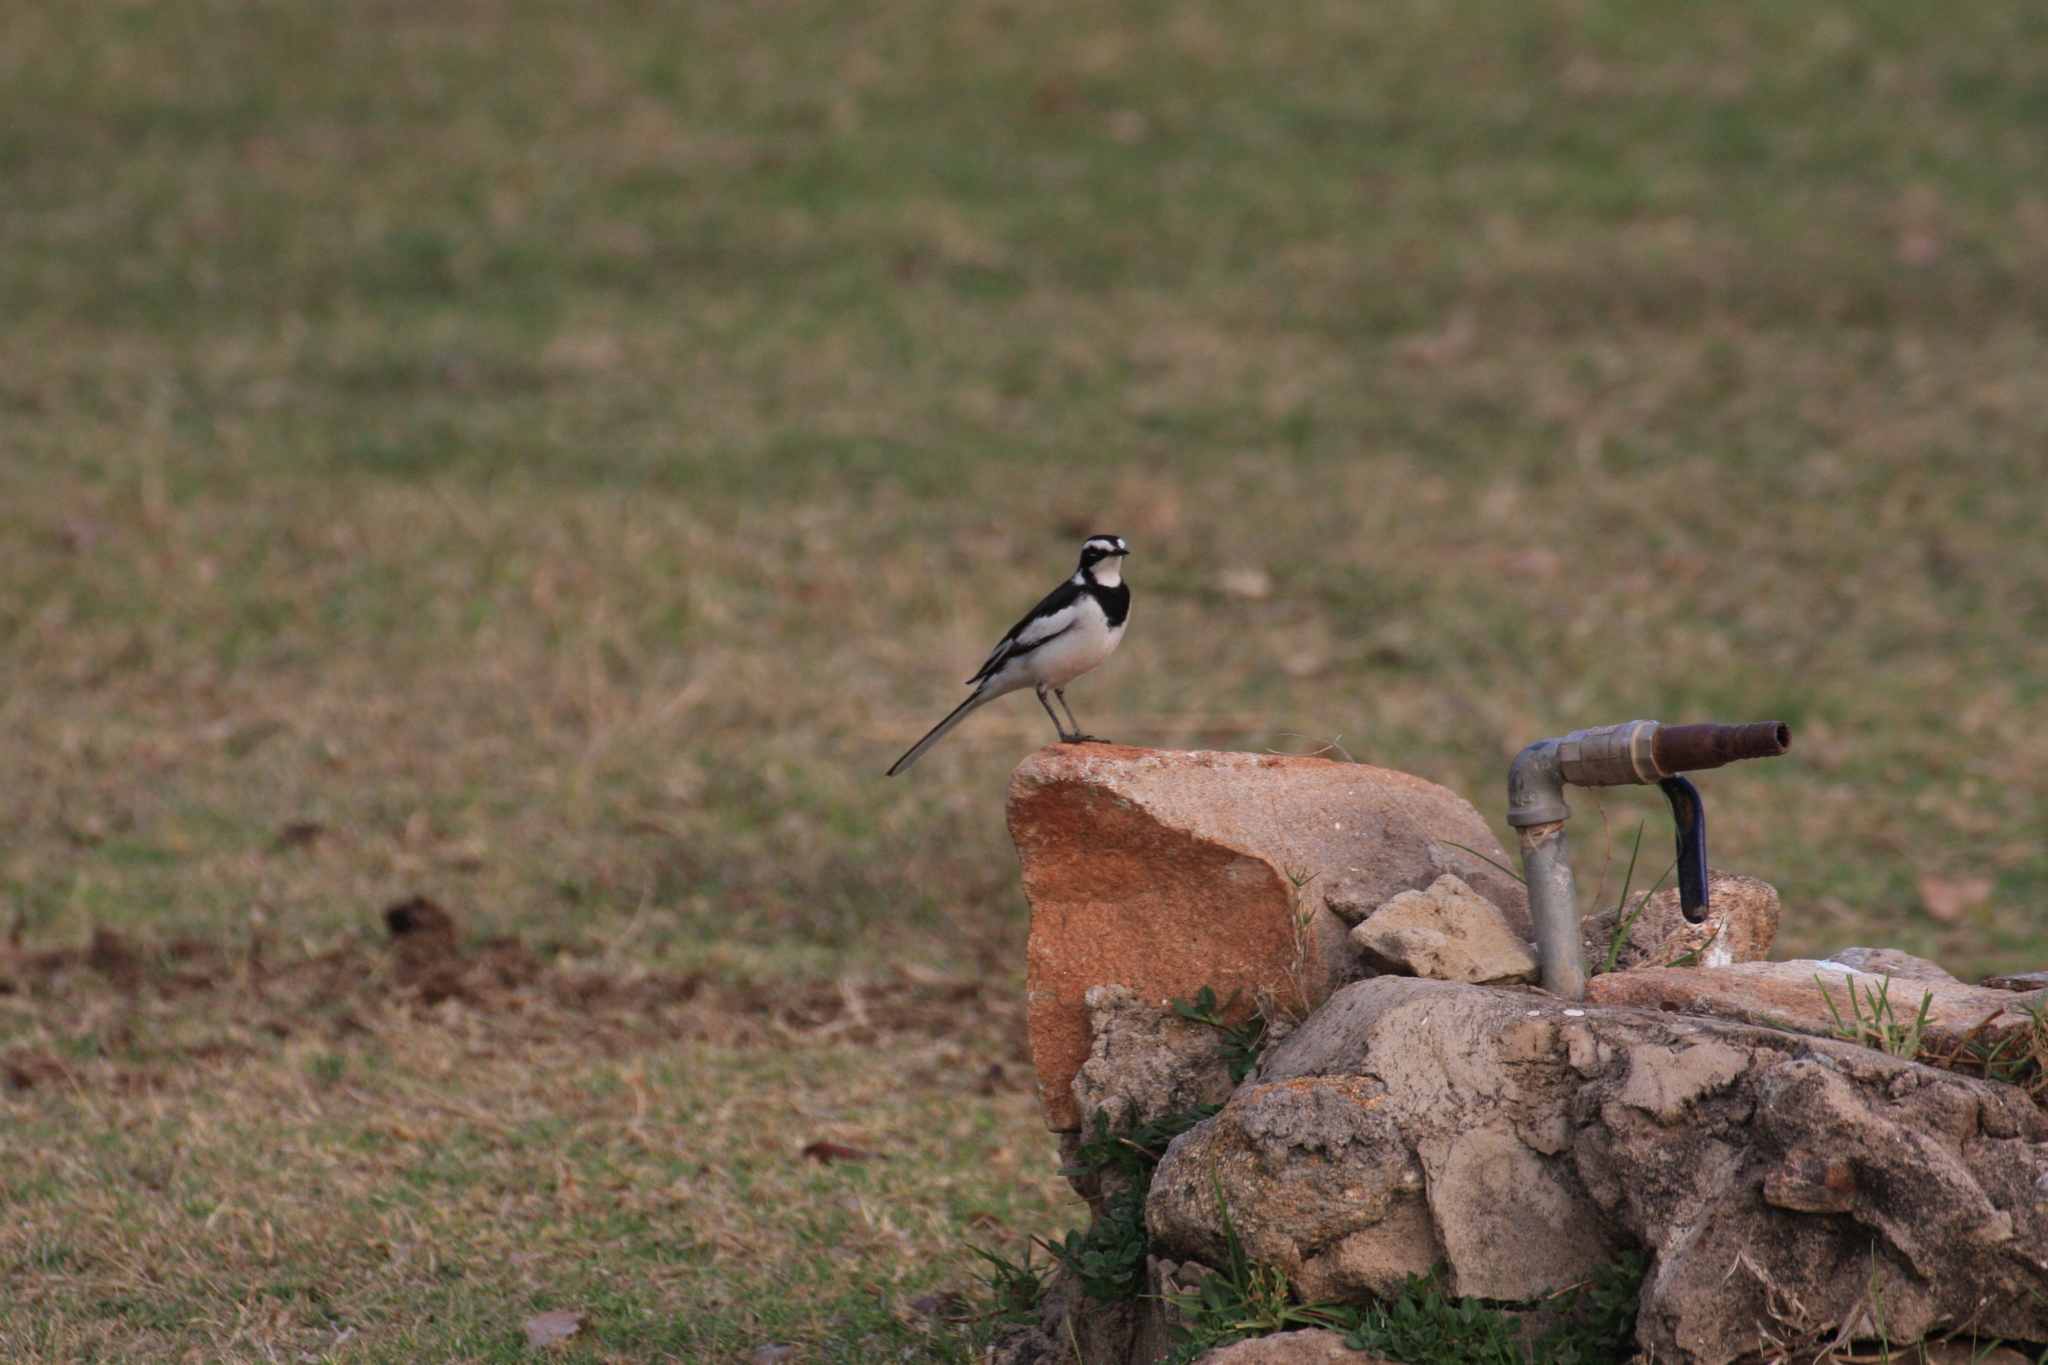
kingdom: Animalia
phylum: Chordata
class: Aves
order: Passeriformes
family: Motacillidae
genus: Motacilla
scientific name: Motacilla aguimp
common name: African pied wagtail
